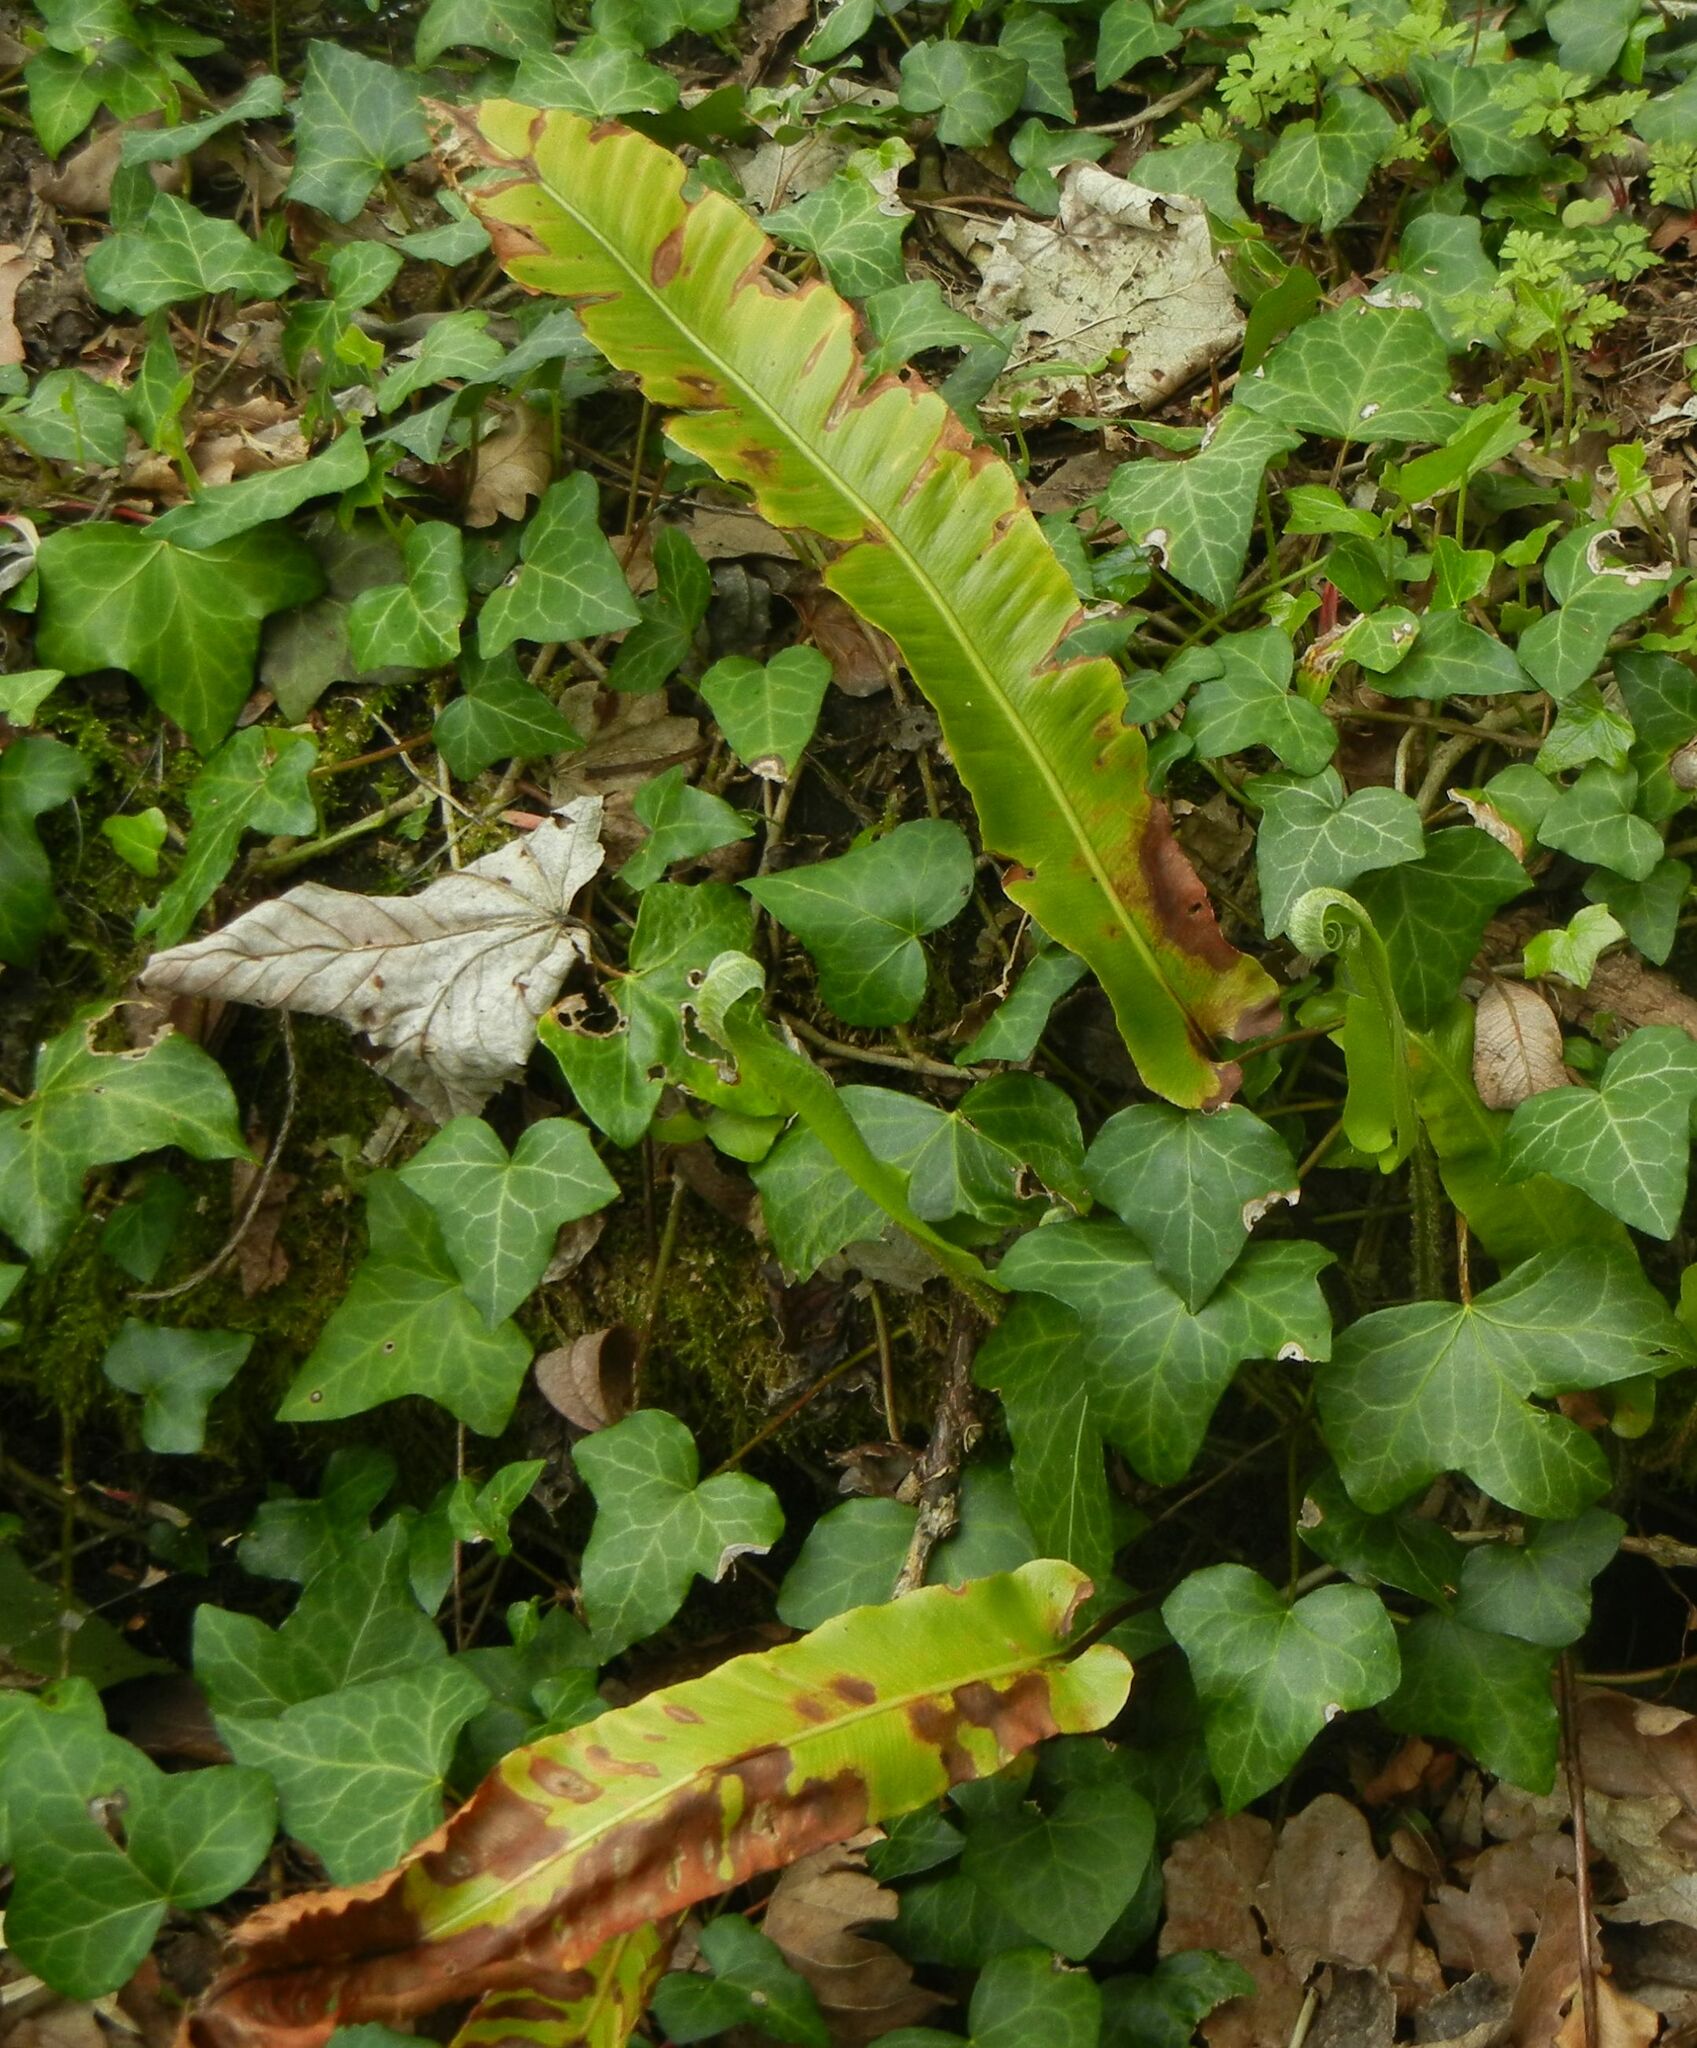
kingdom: Plantae
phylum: Tracheophyta
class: Polypodiopsida
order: Polypodiales
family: Aspleniaceae
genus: Asplenium
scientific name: Asplenium scolopendrium
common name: Hart's-tongue fern
